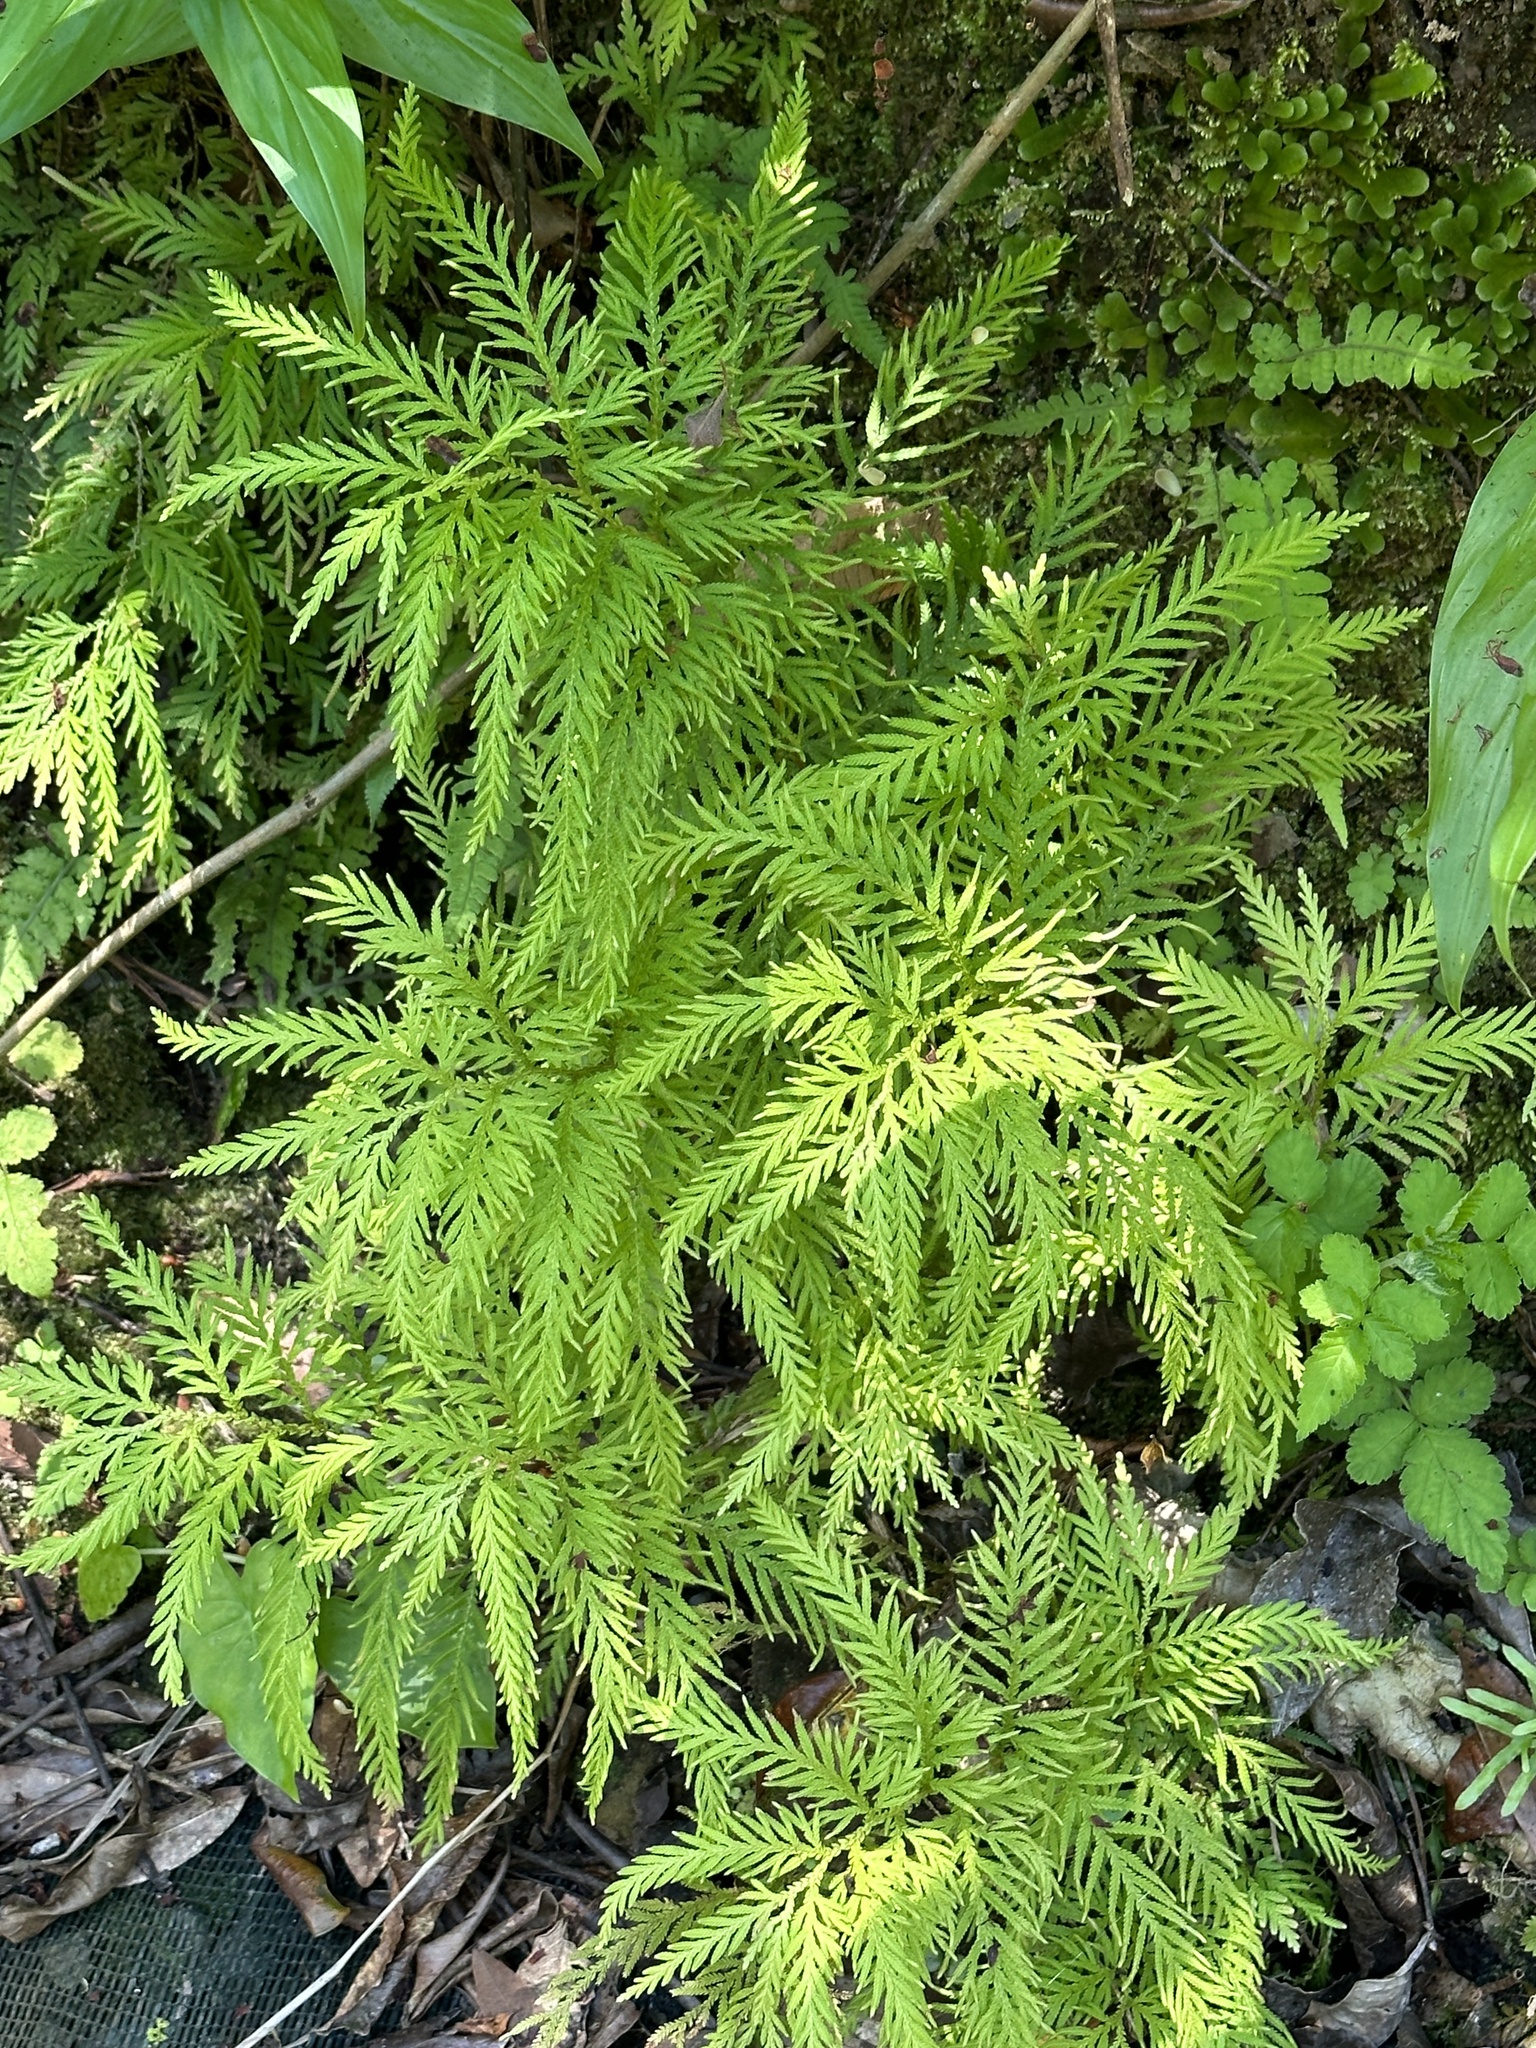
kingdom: Plantae
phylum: Tracheophyta
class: Lycopodiopsida
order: Selaginellales
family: Selaginellaceae
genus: Selaginella
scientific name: Selaginella delicatula
